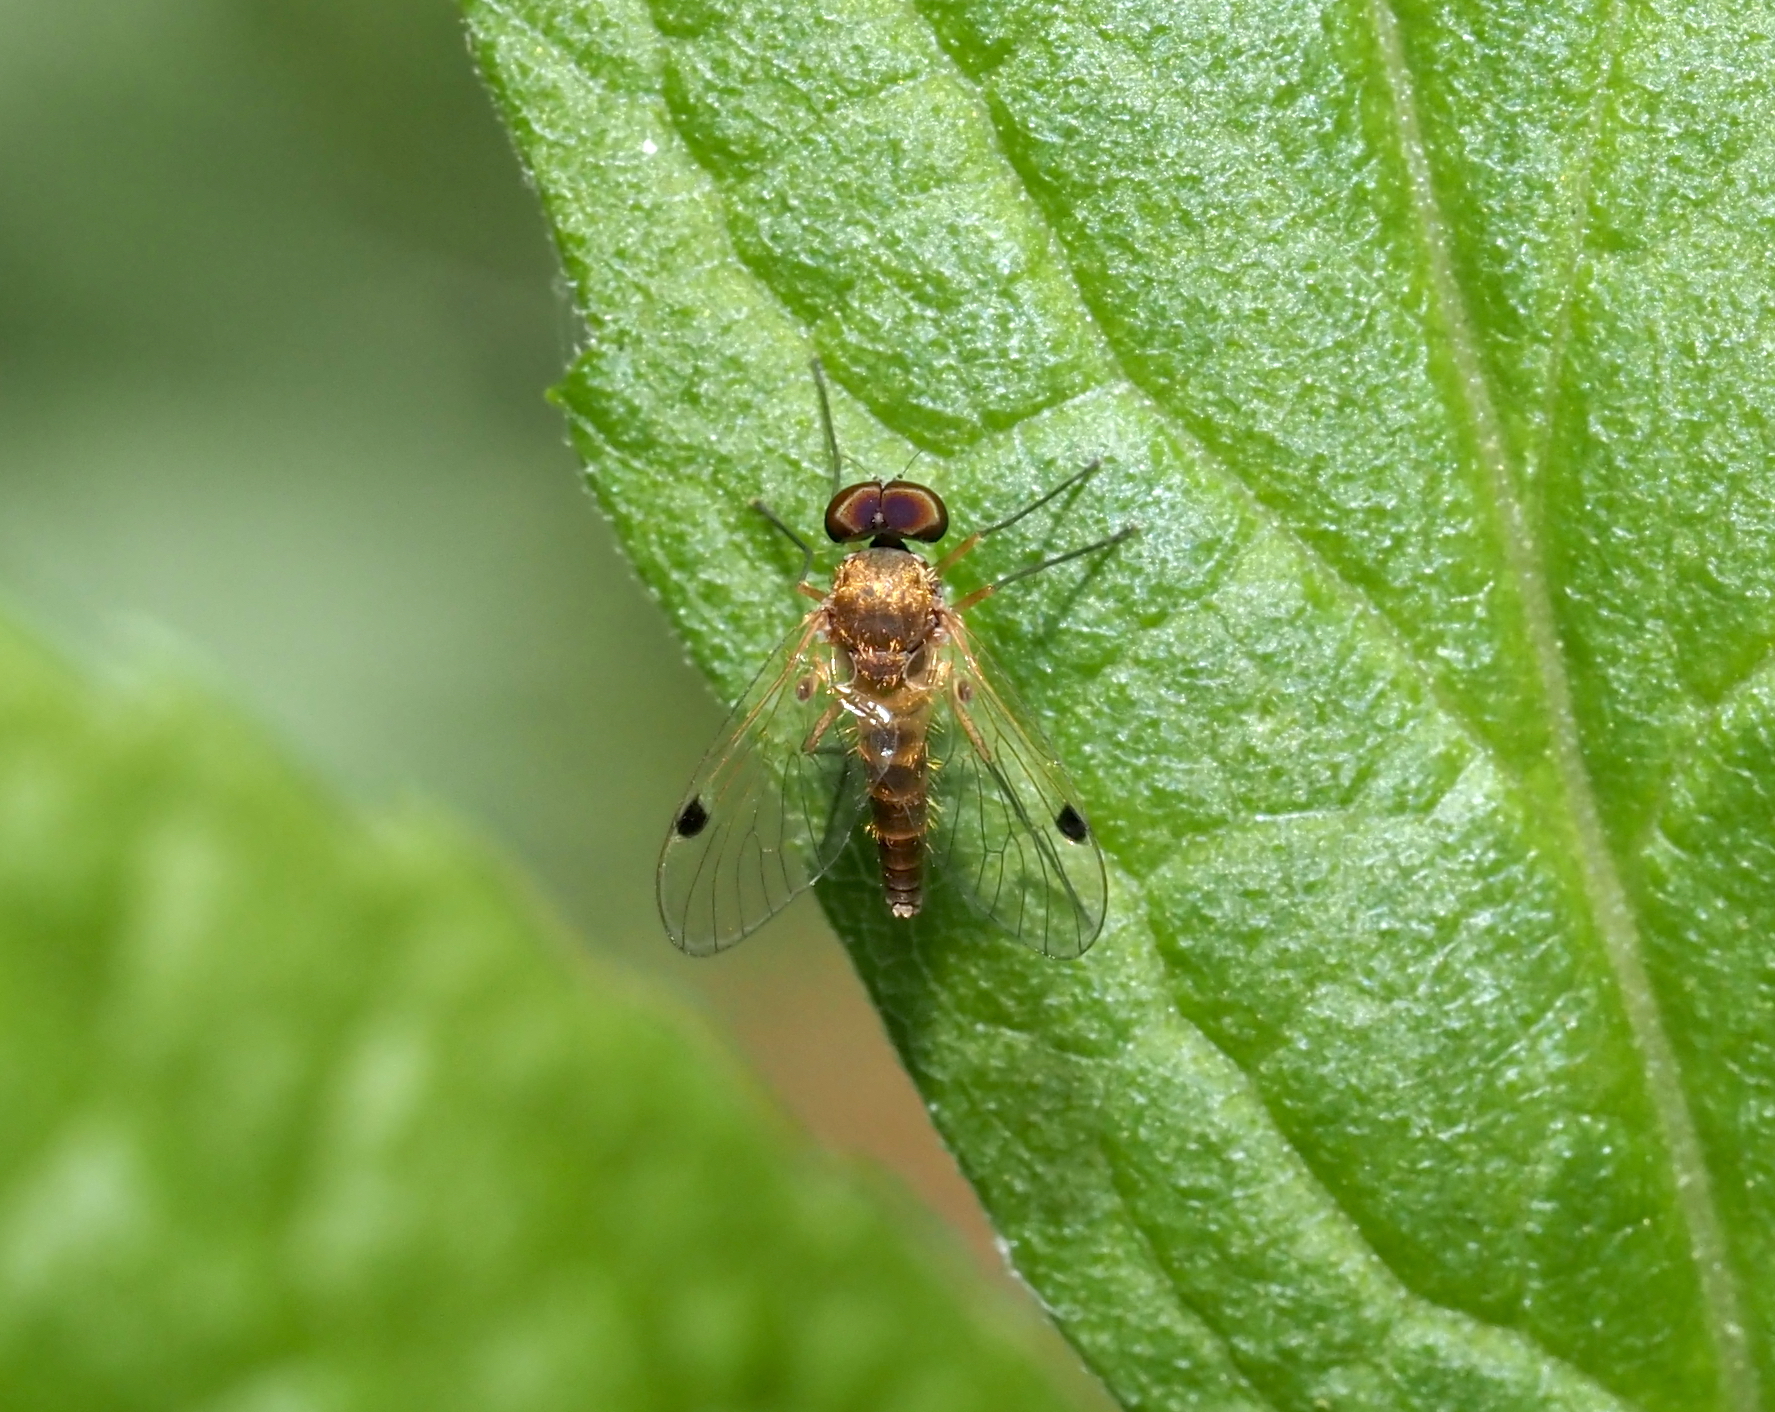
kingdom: Animalia
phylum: Arthropoda
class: Insecta
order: Diptera
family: Rhagionidae
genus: Chrysopilus
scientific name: Chrysopilus modestus
